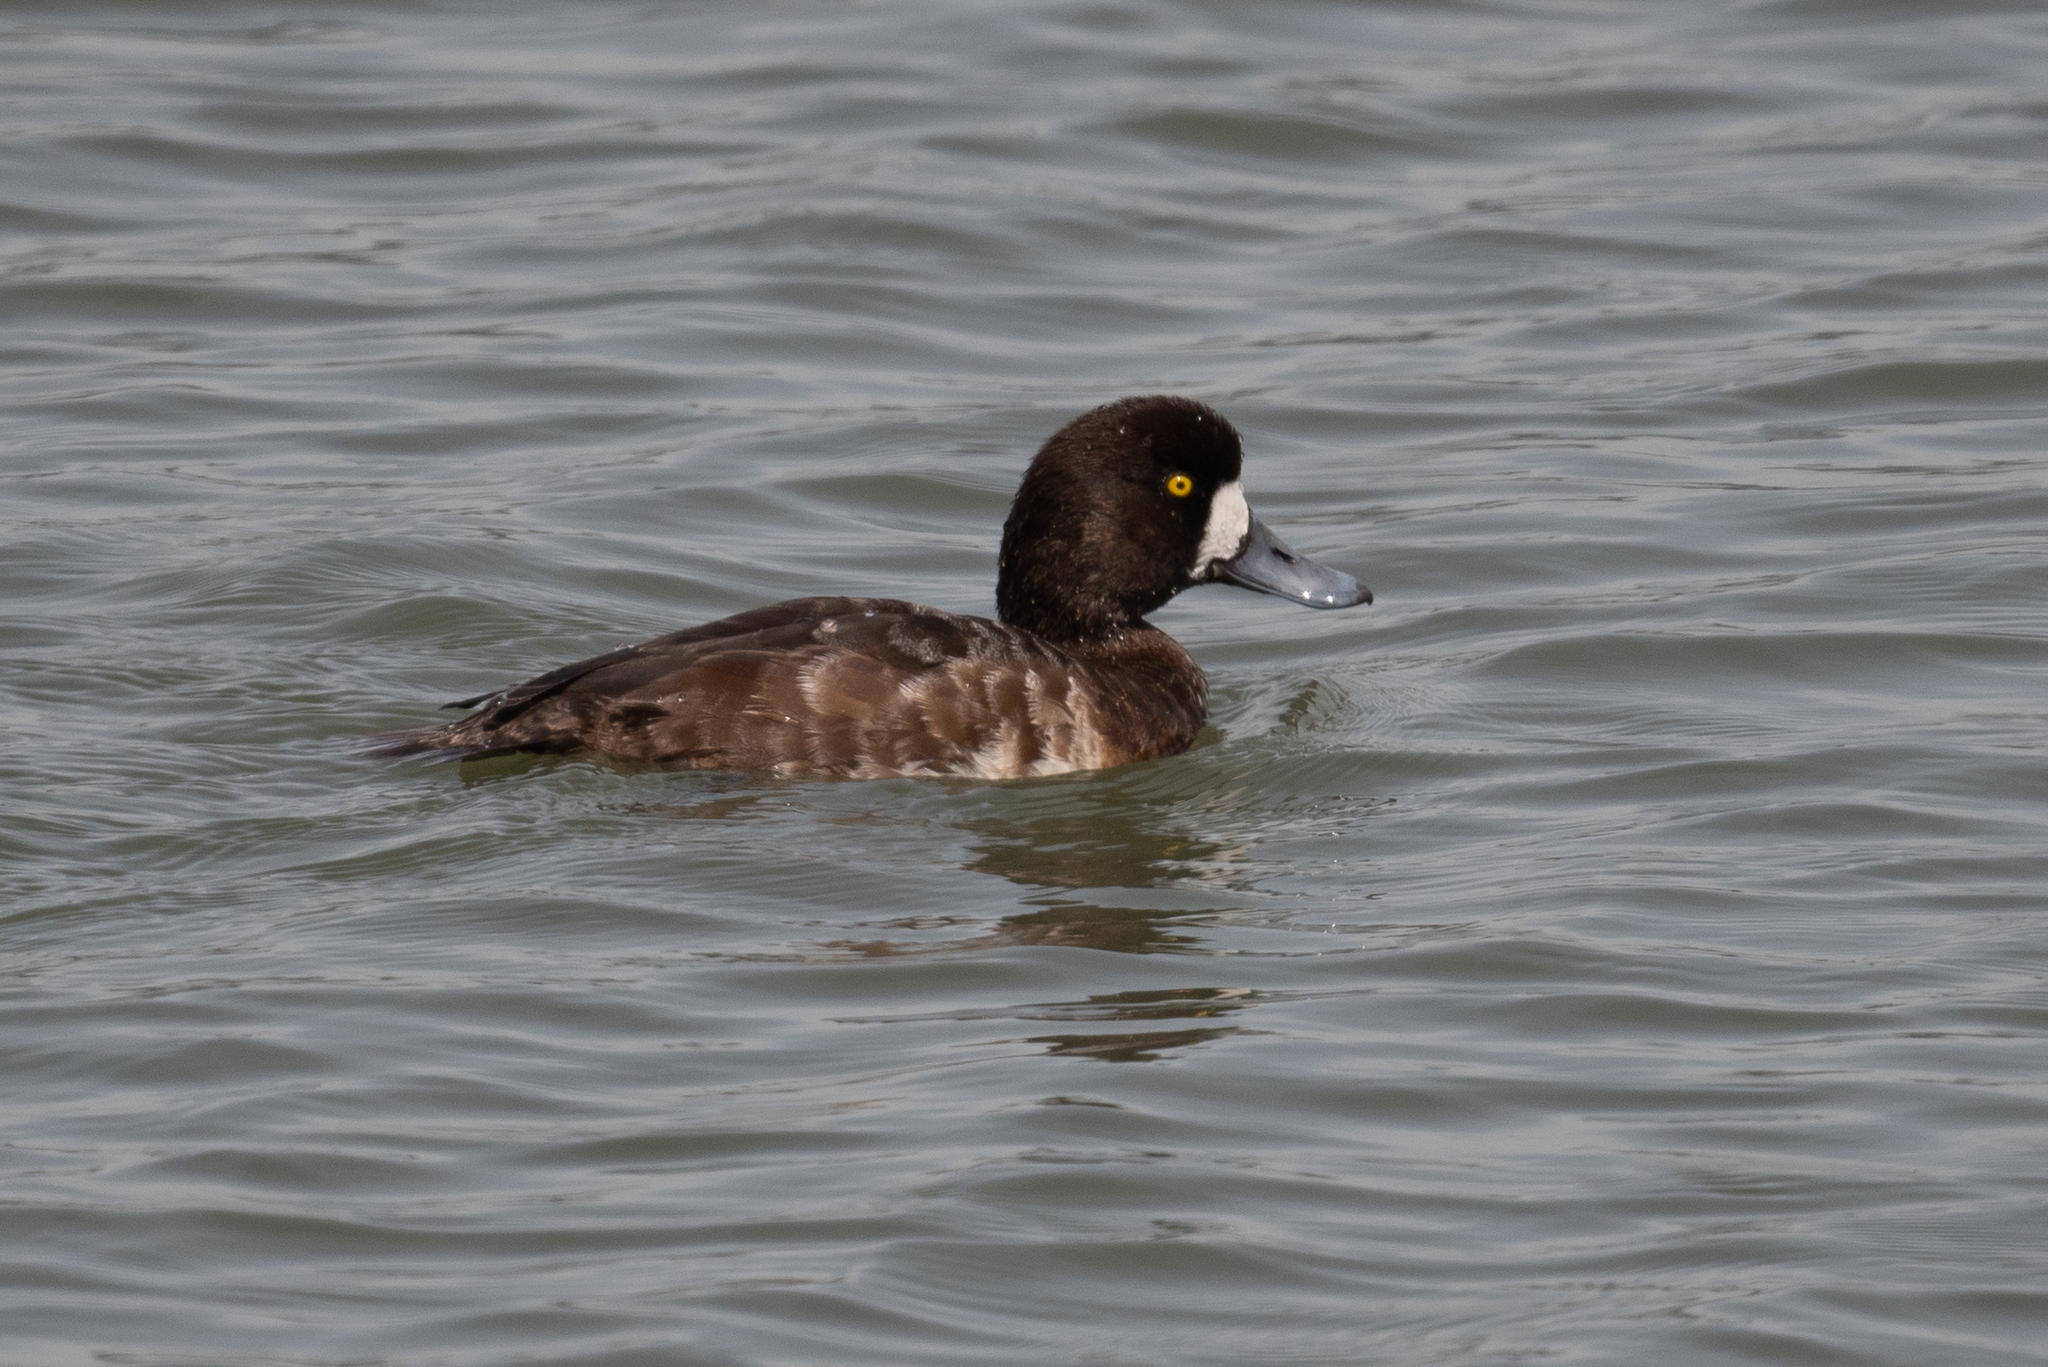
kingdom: Animalia
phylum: Chordata
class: Aves
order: Anseriformes
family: Anatidae
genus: Aythya
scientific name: Aythya marila
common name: Greater scaup
